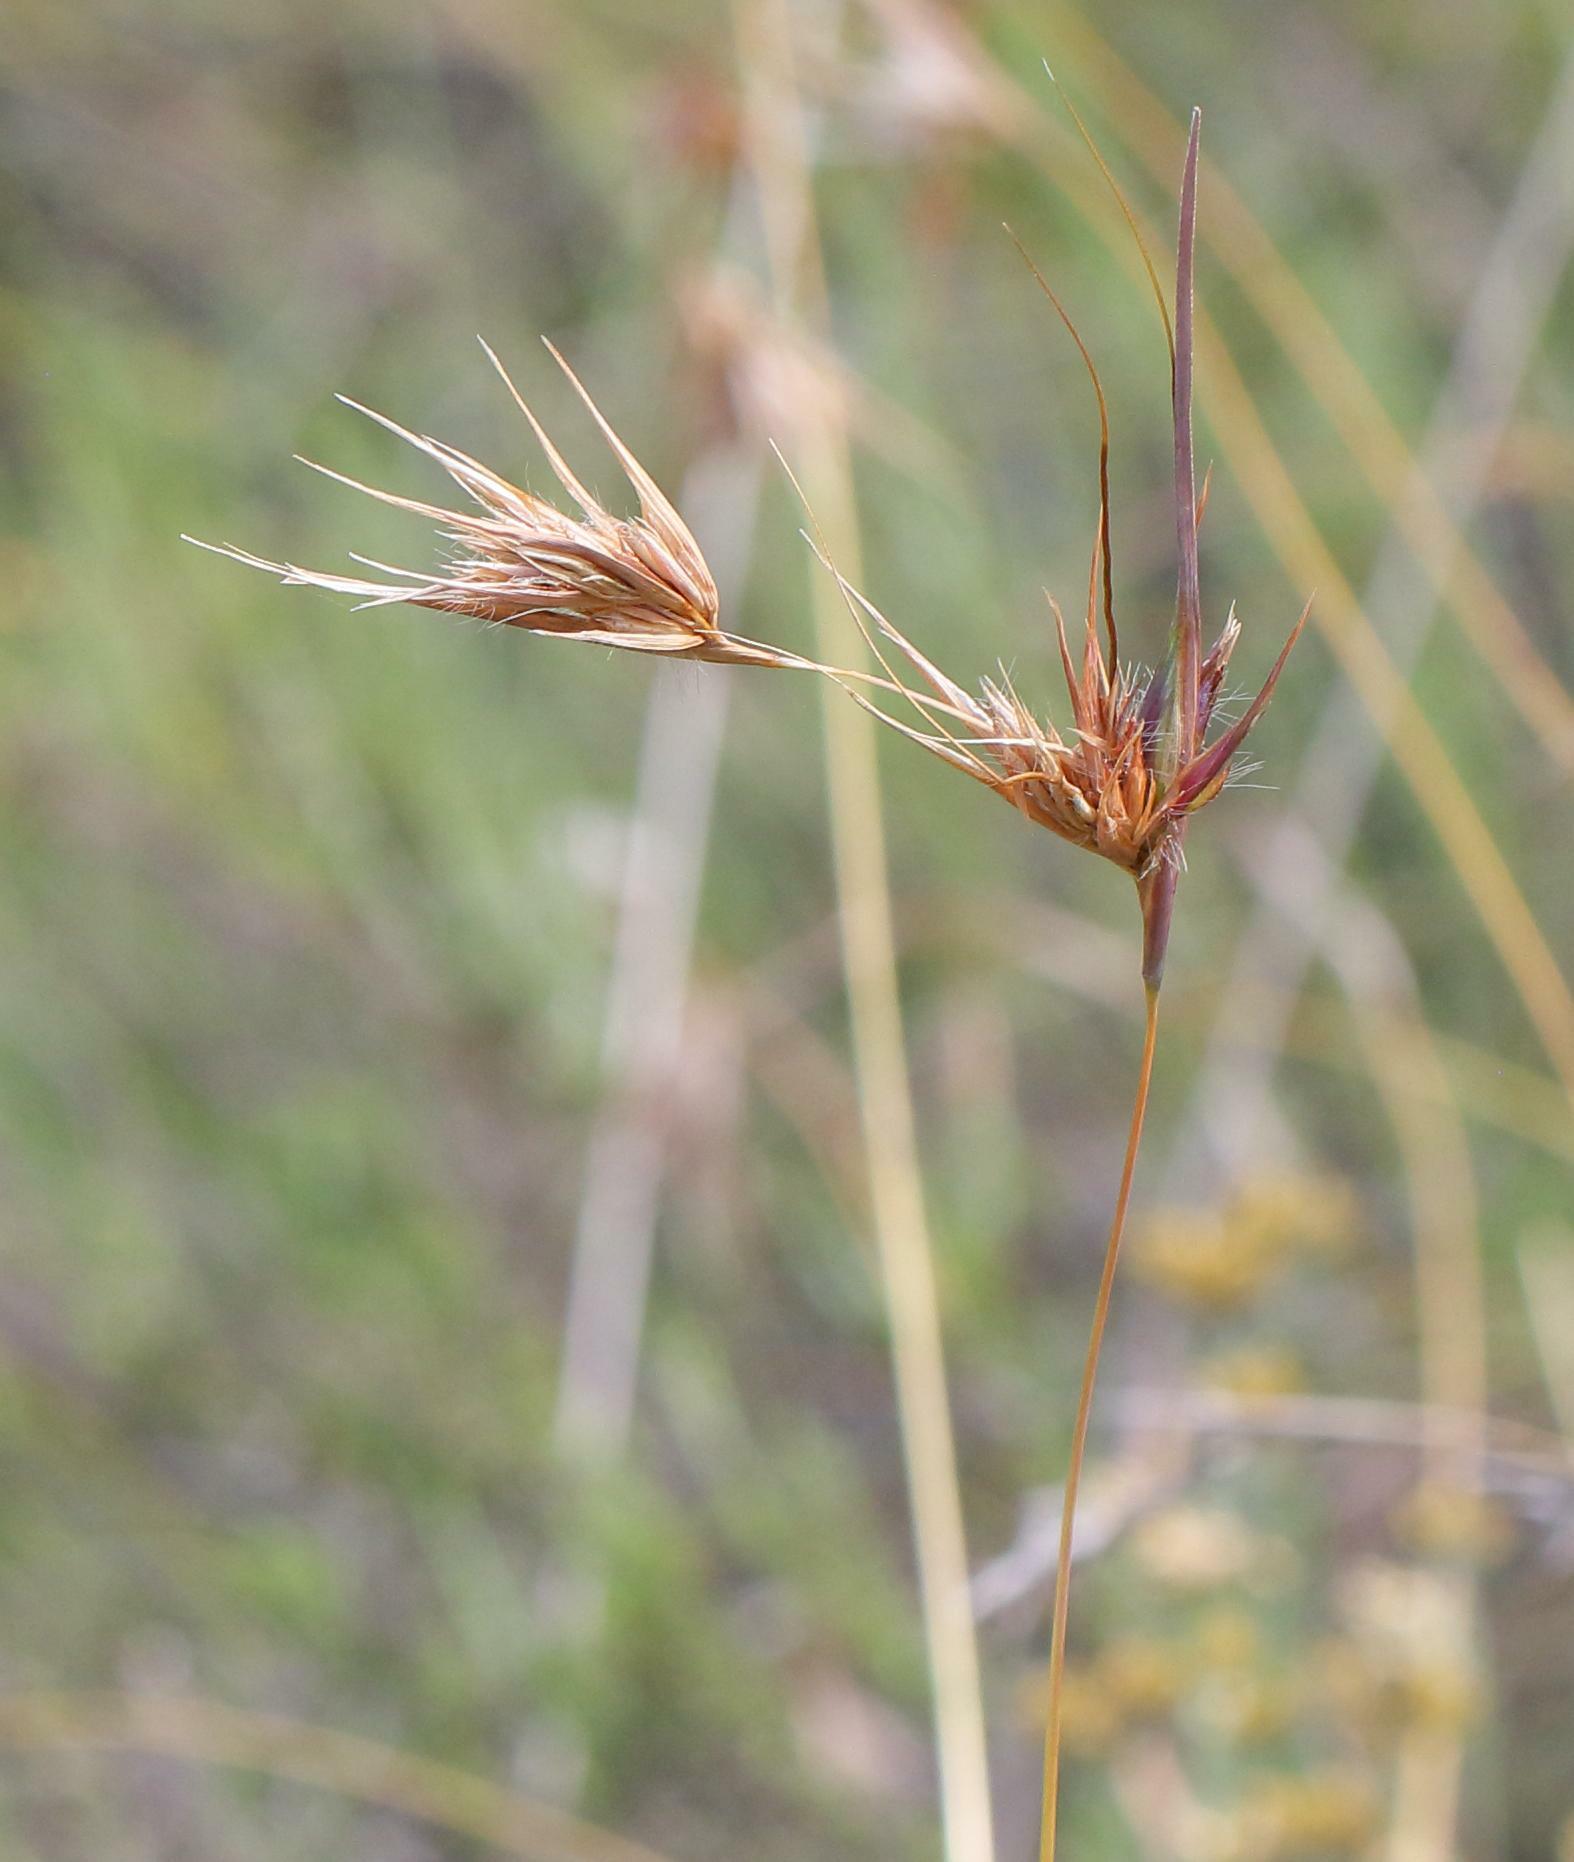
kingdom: Plantae
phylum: Tracheophyta
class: Liliopsida
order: Poales
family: Poaceae
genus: Themeda
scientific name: Themeda triandra
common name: Kangaroo grass
